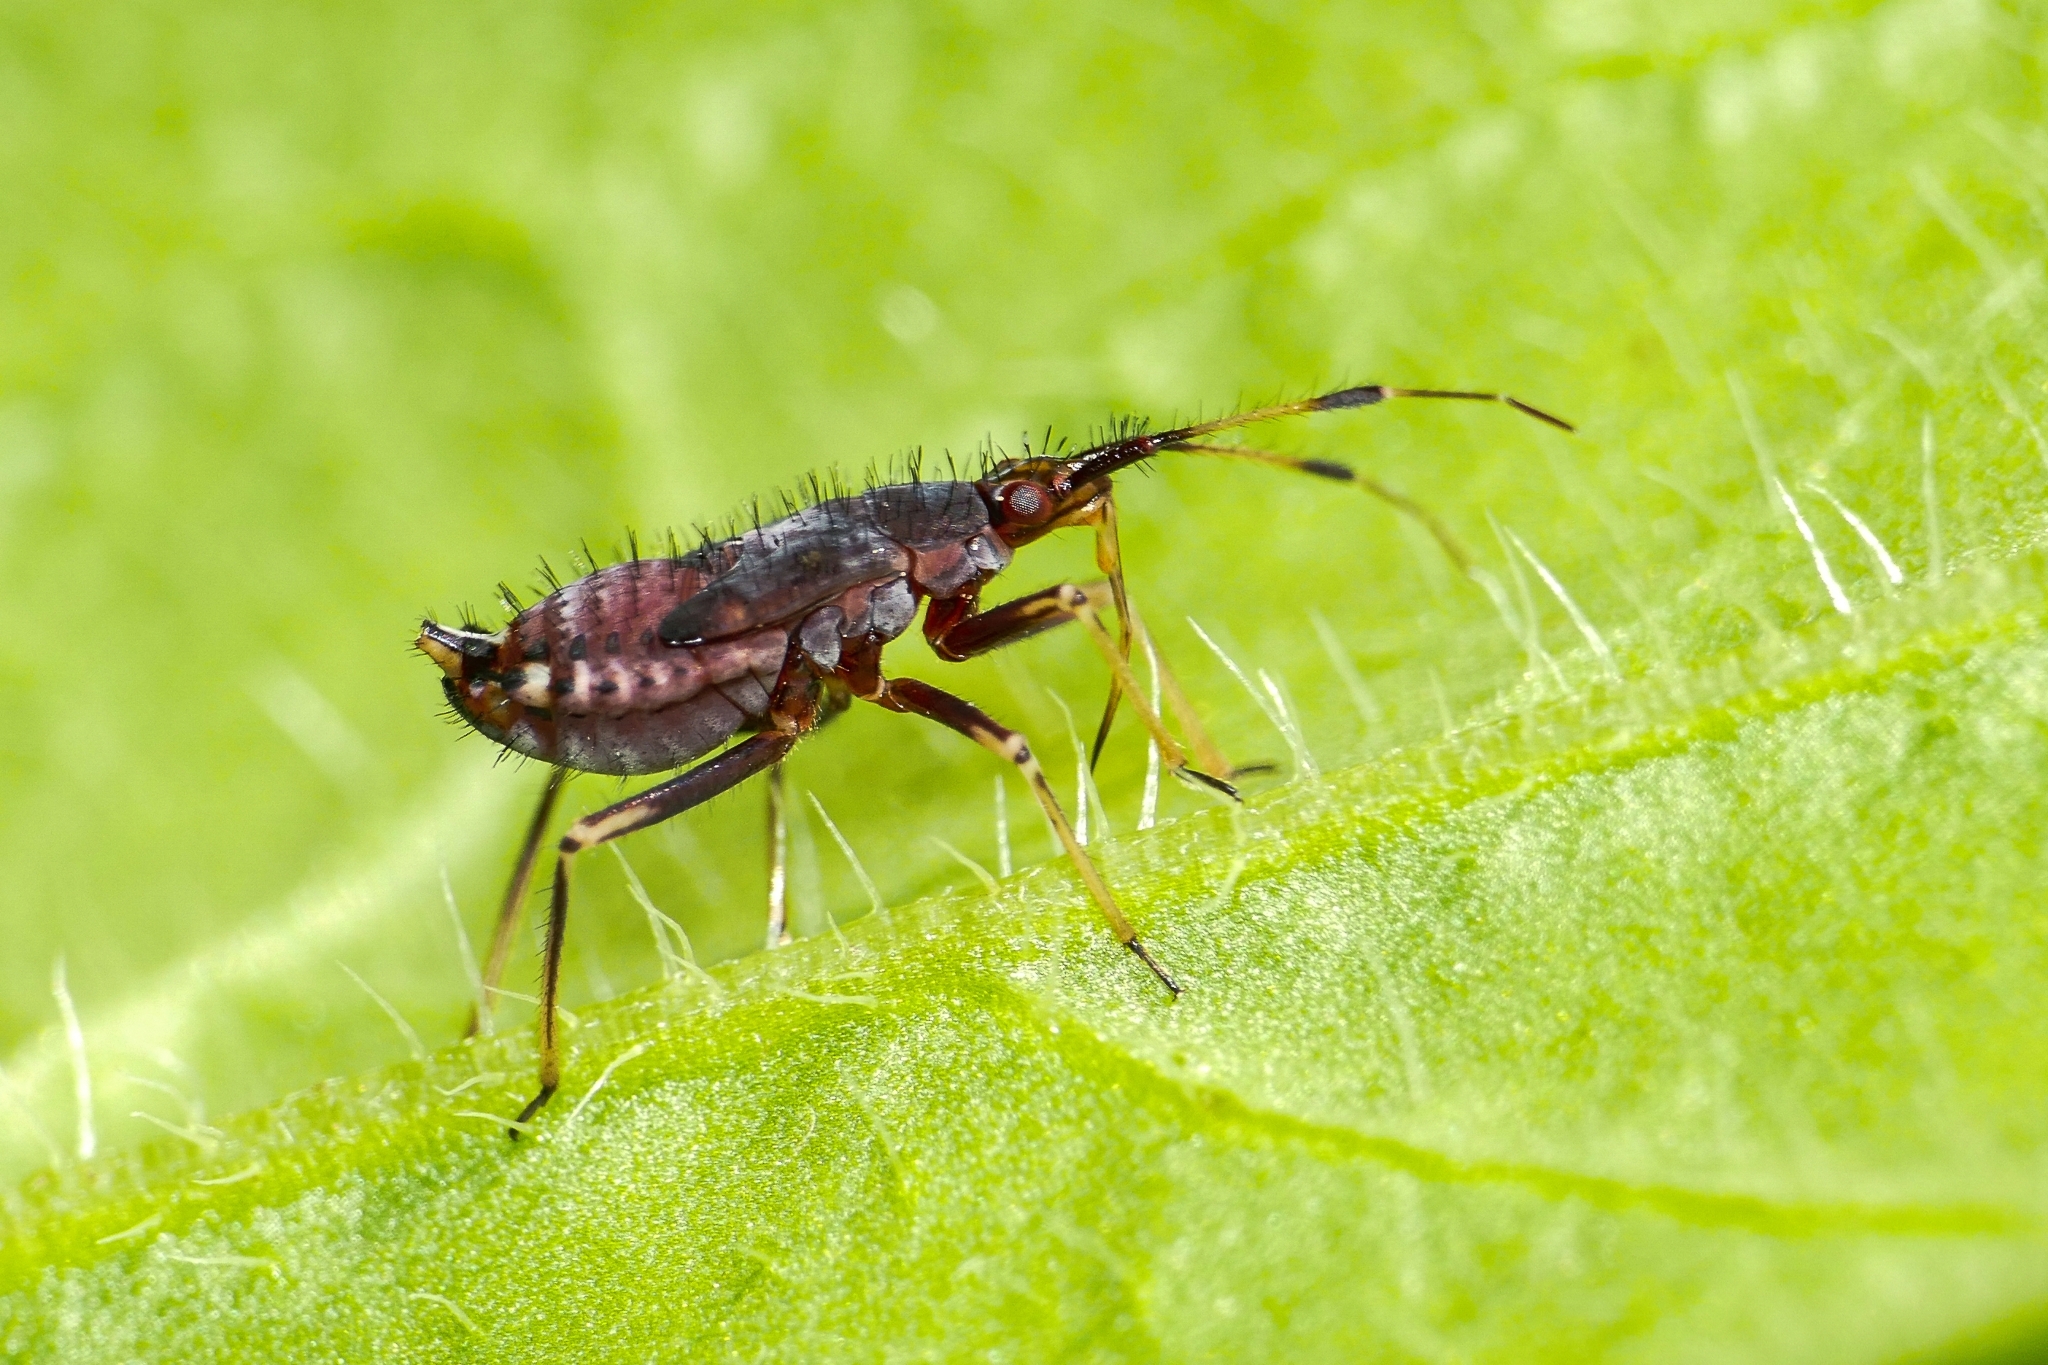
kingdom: Animalia
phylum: Arthropoda
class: Insecta
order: Hemiptera
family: Miridae
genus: Deraeocoris
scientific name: Deraeocoris ruber
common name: Plant bug
